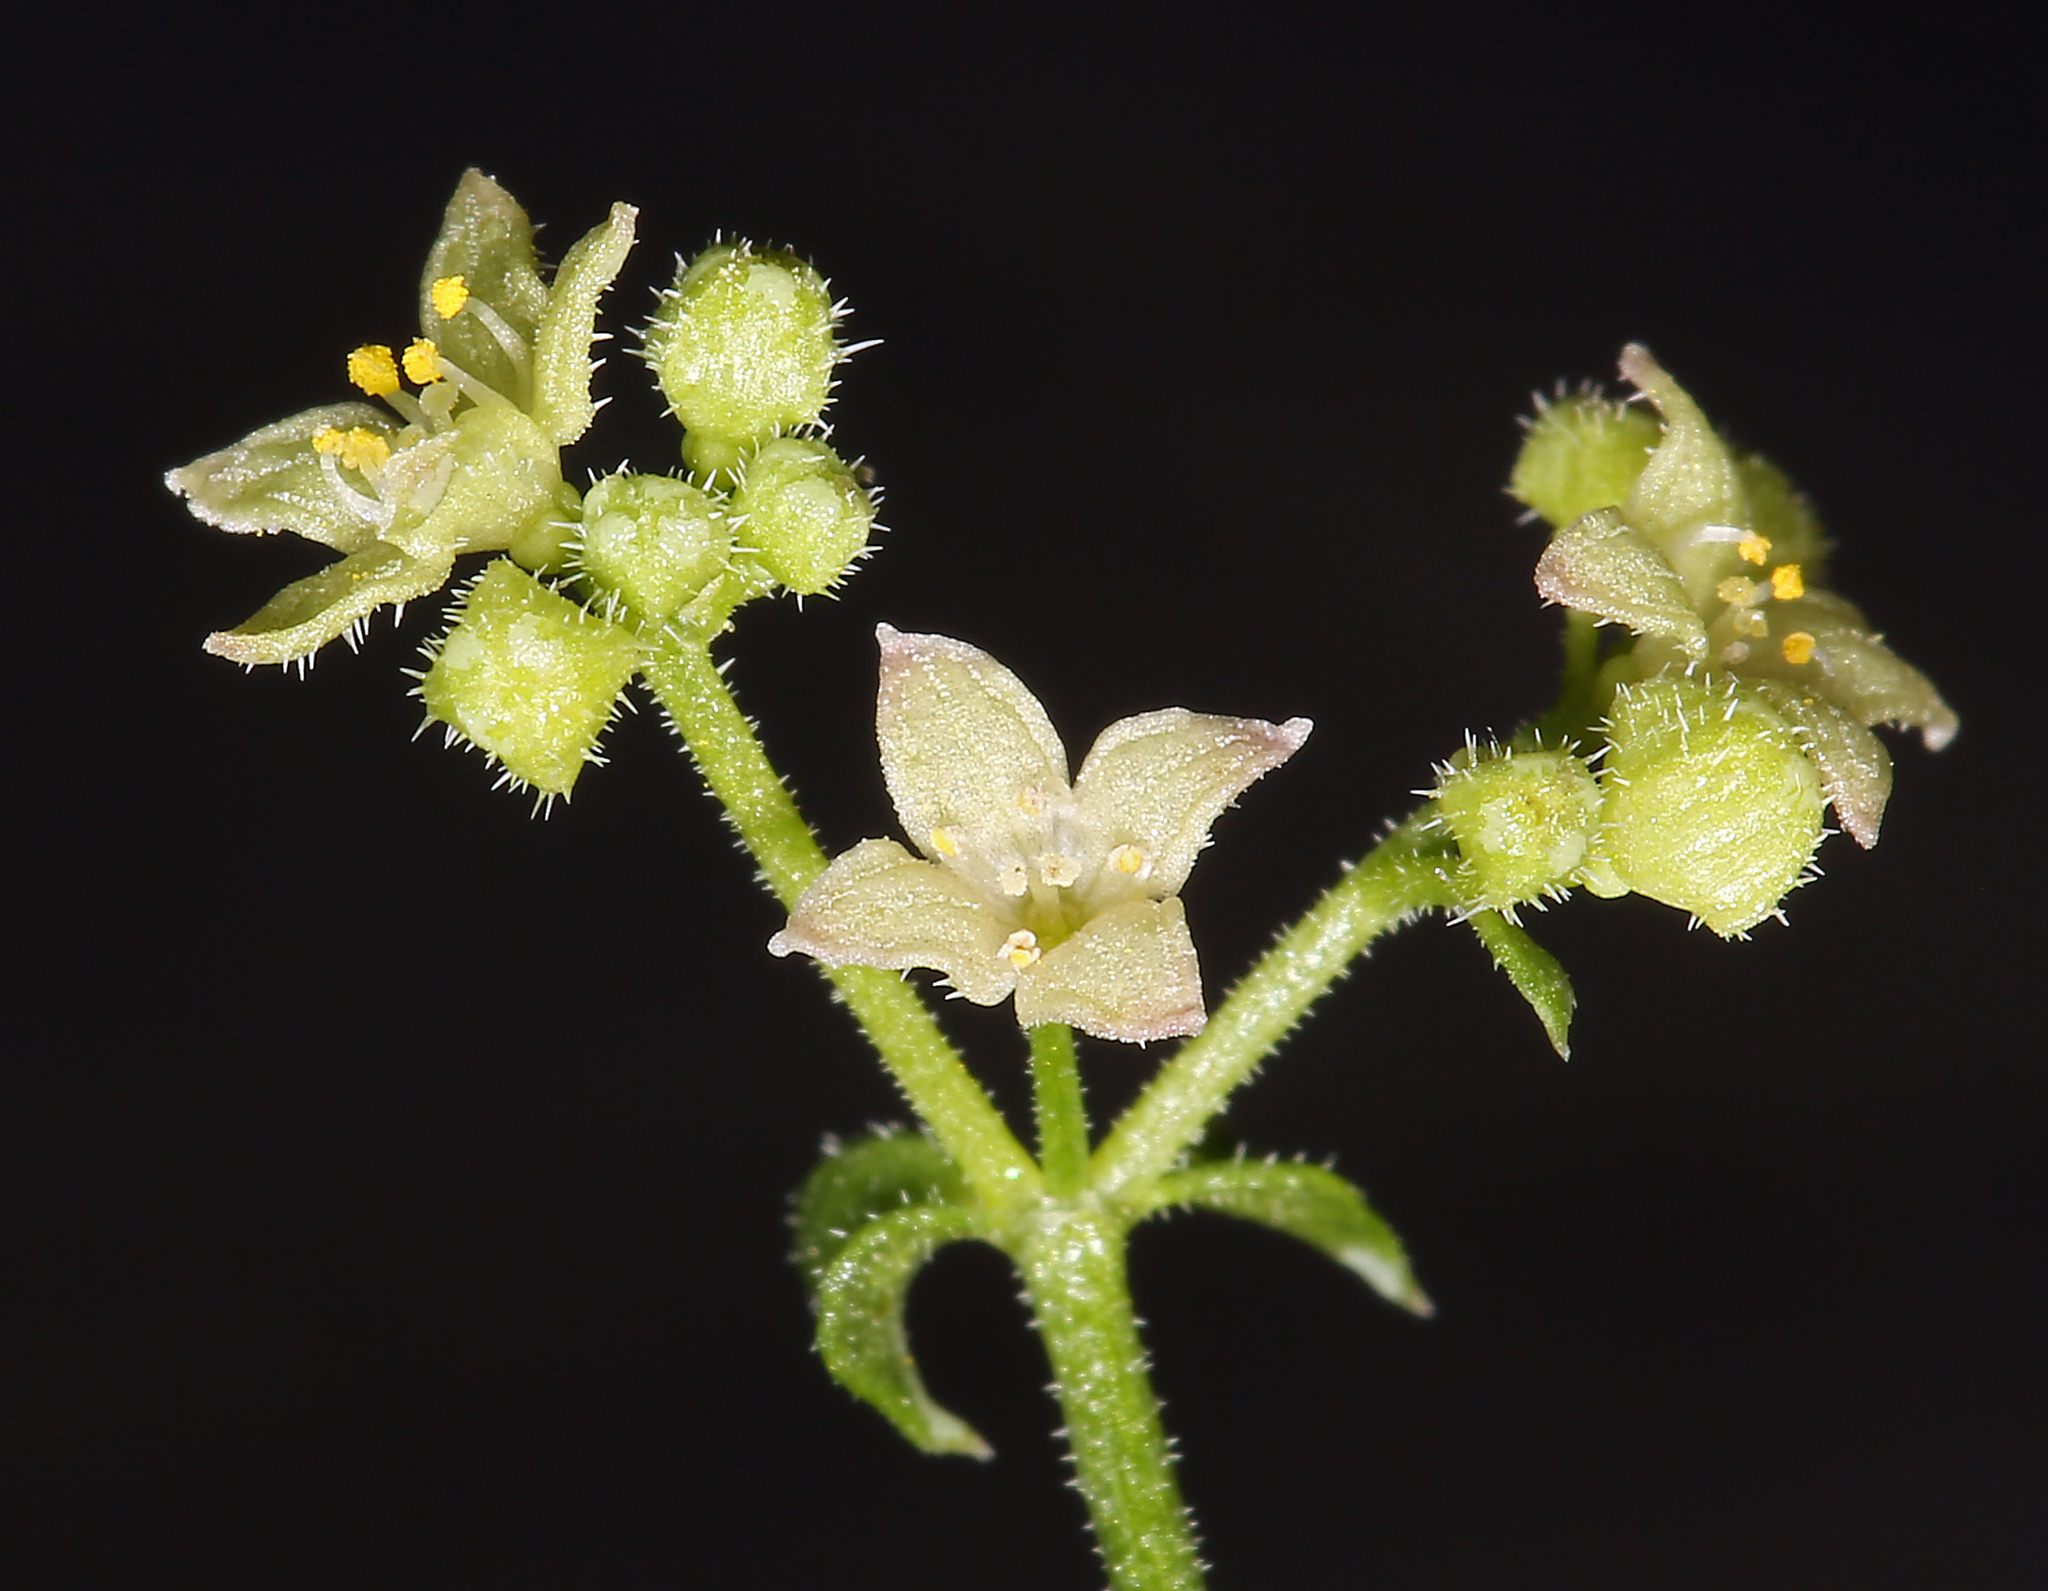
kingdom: Plantae
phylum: Tracheophyta
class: Magnoliopsida
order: Gentianales
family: Rubiaceae
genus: Galium
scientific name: Galium multiflorum
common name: Many-flowered bedstraw
